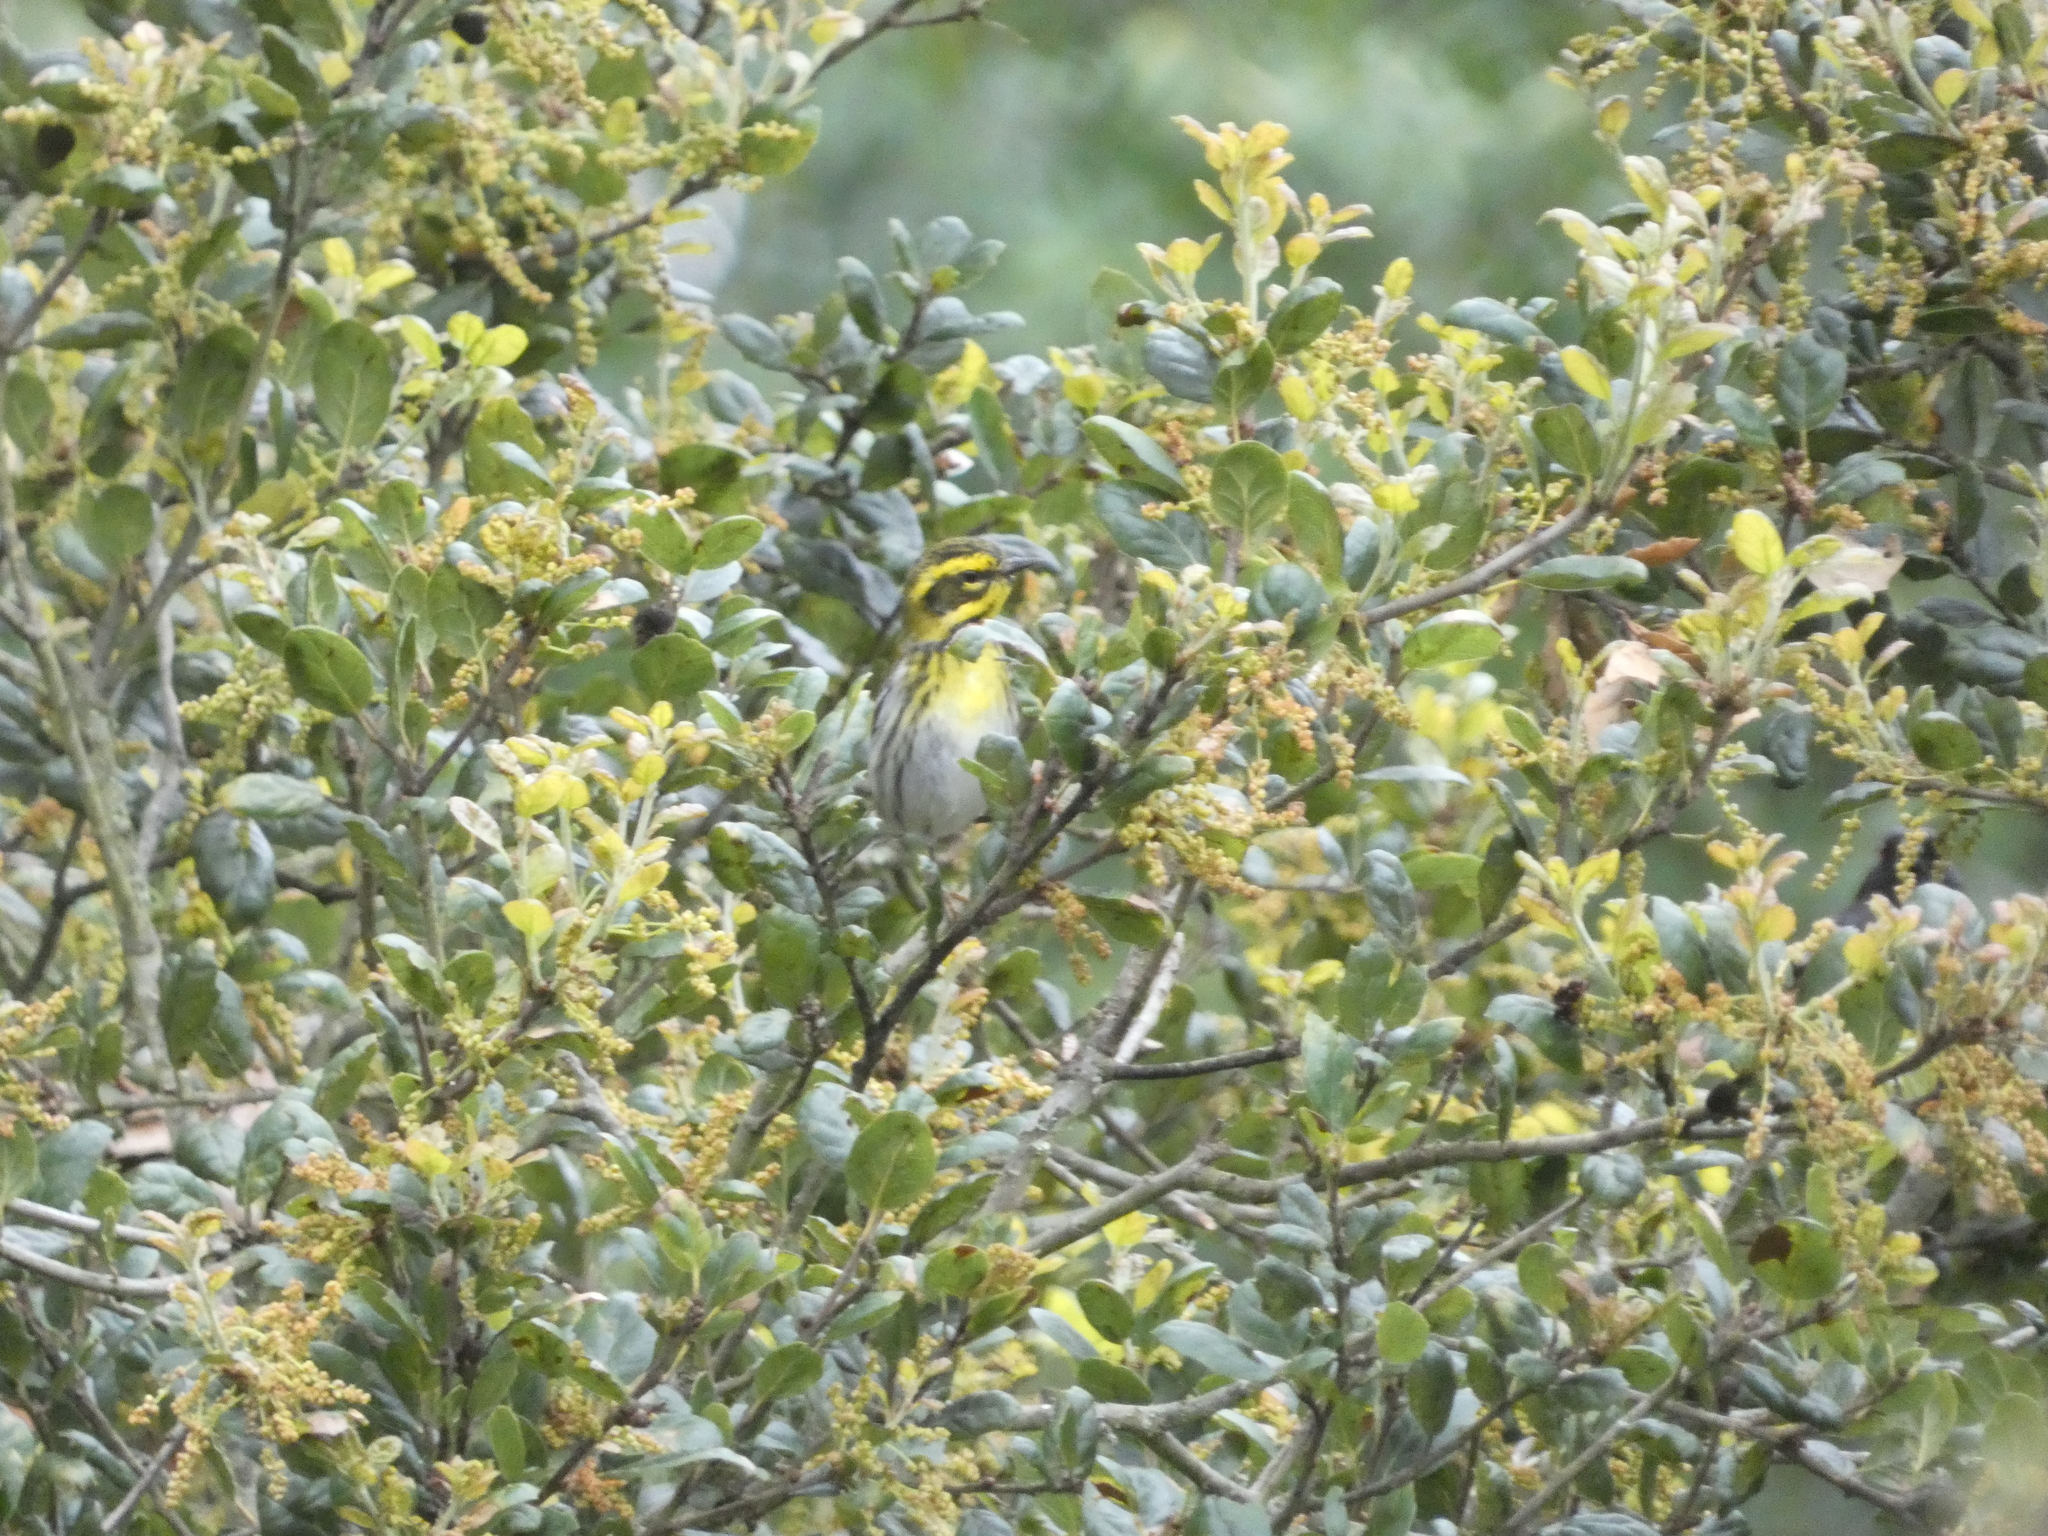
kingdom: Animalia
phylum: Chordata
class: Aves
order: Passeriformes
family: Parulidae
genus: Setophaga
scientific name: Setophaga townsendi
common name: Townsend's warbler
